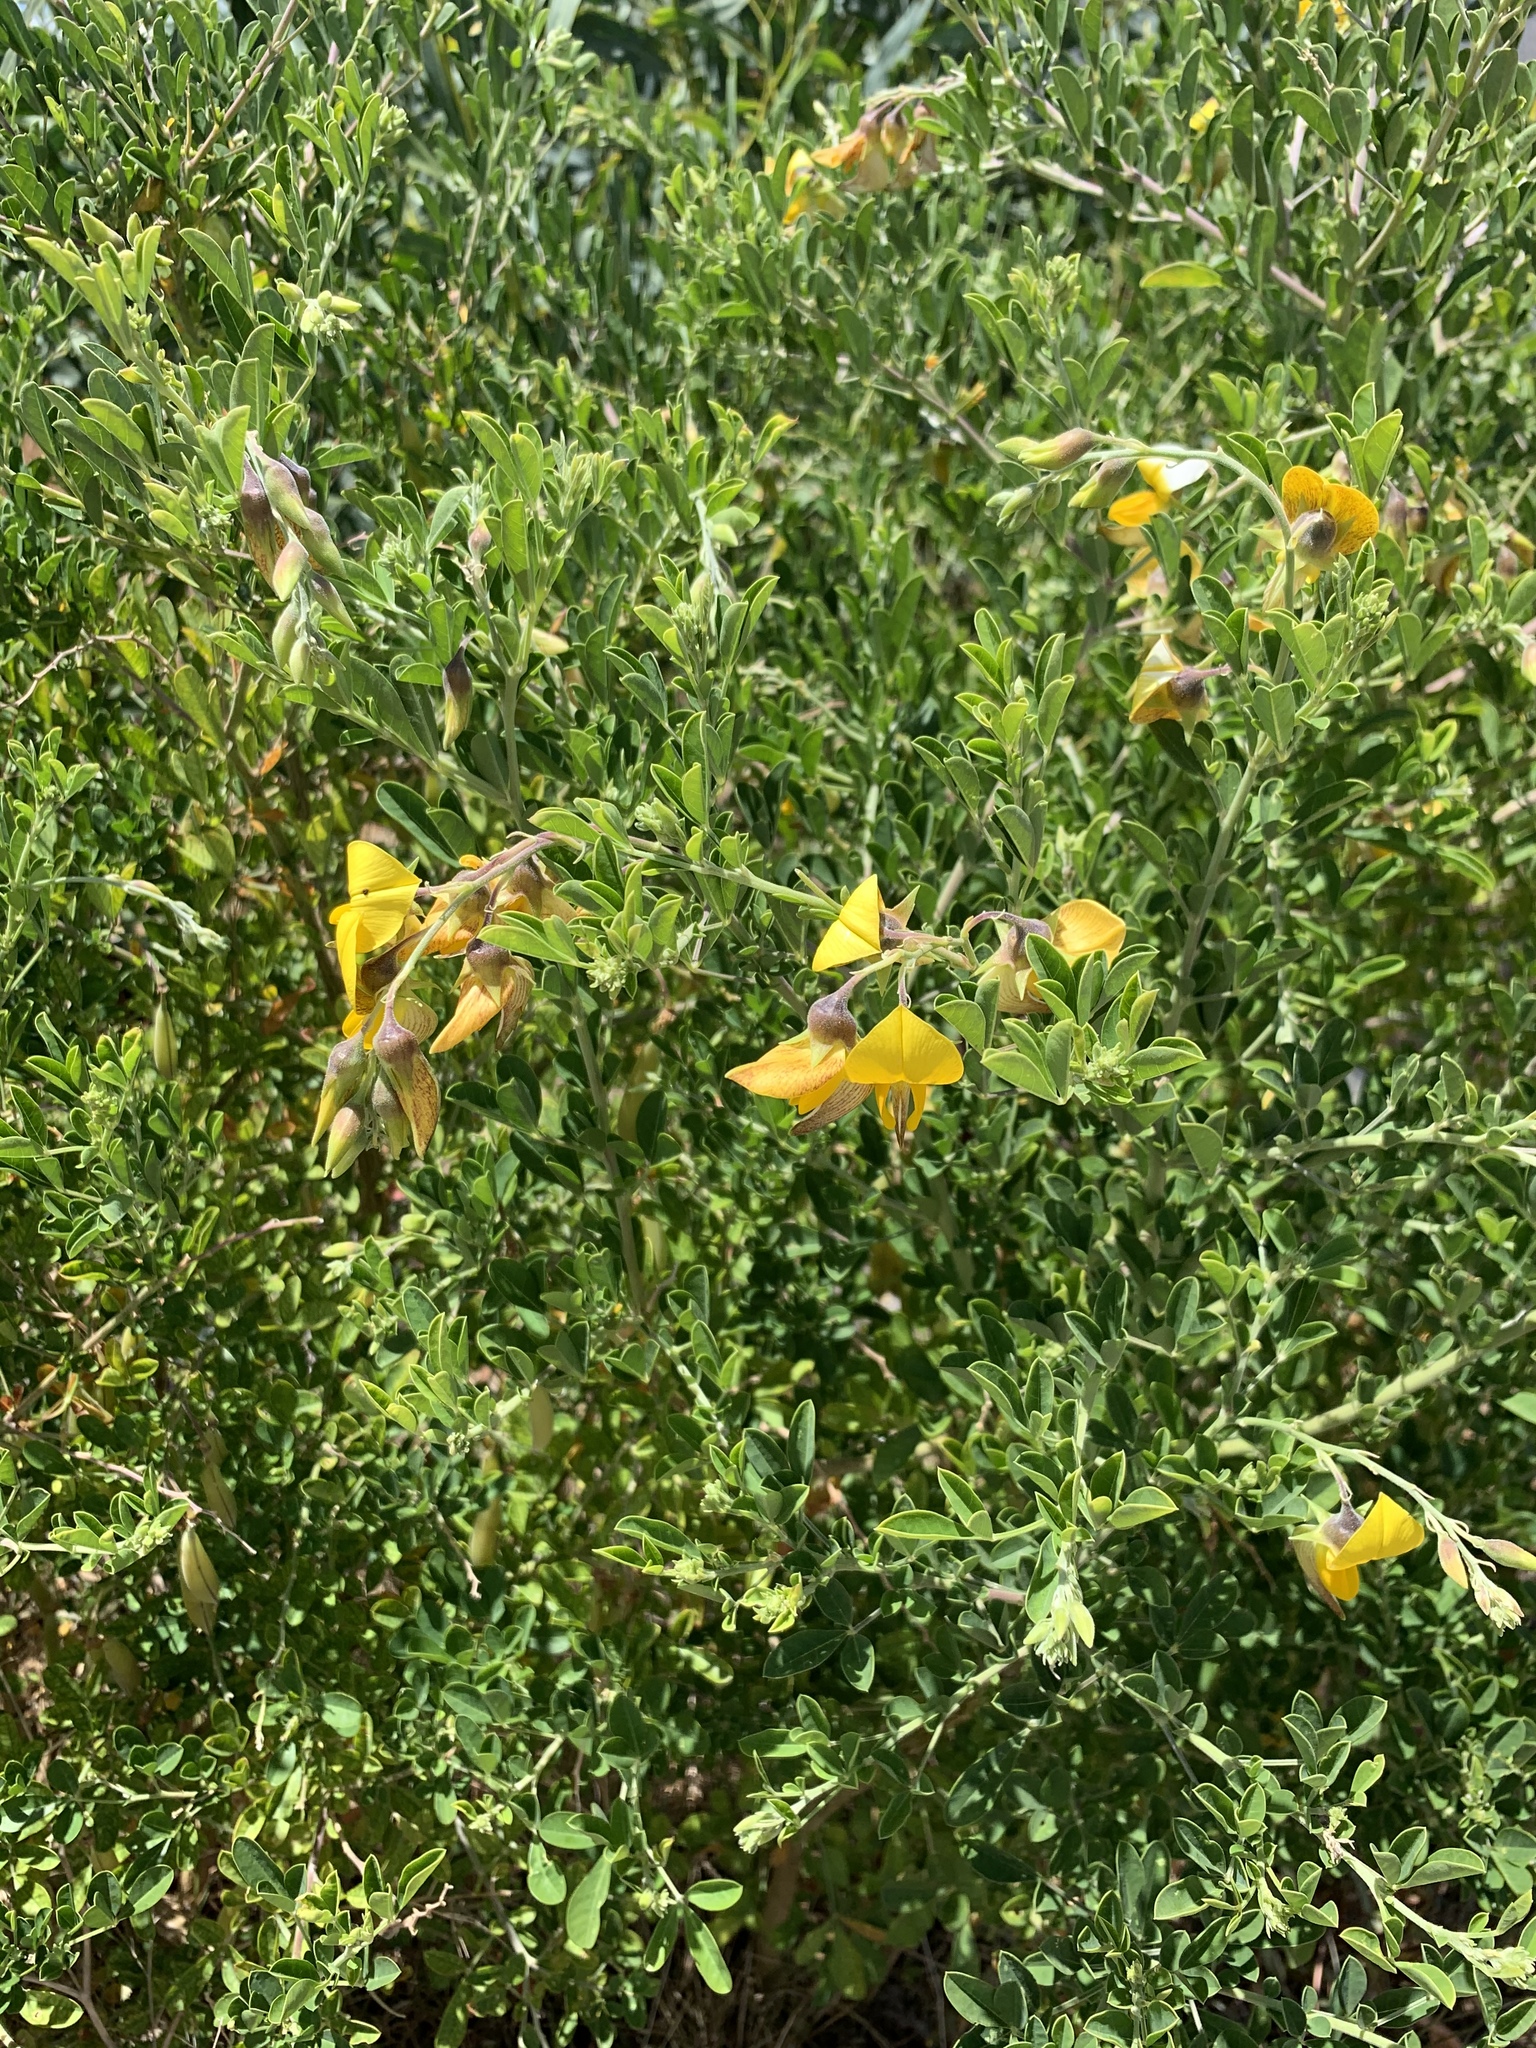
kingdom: Plantae
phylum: Tracheophyta
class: Magnoliopsida
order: Fabales
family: Fabaceae
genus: Crotalaria
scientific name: Crotalaria capensis
